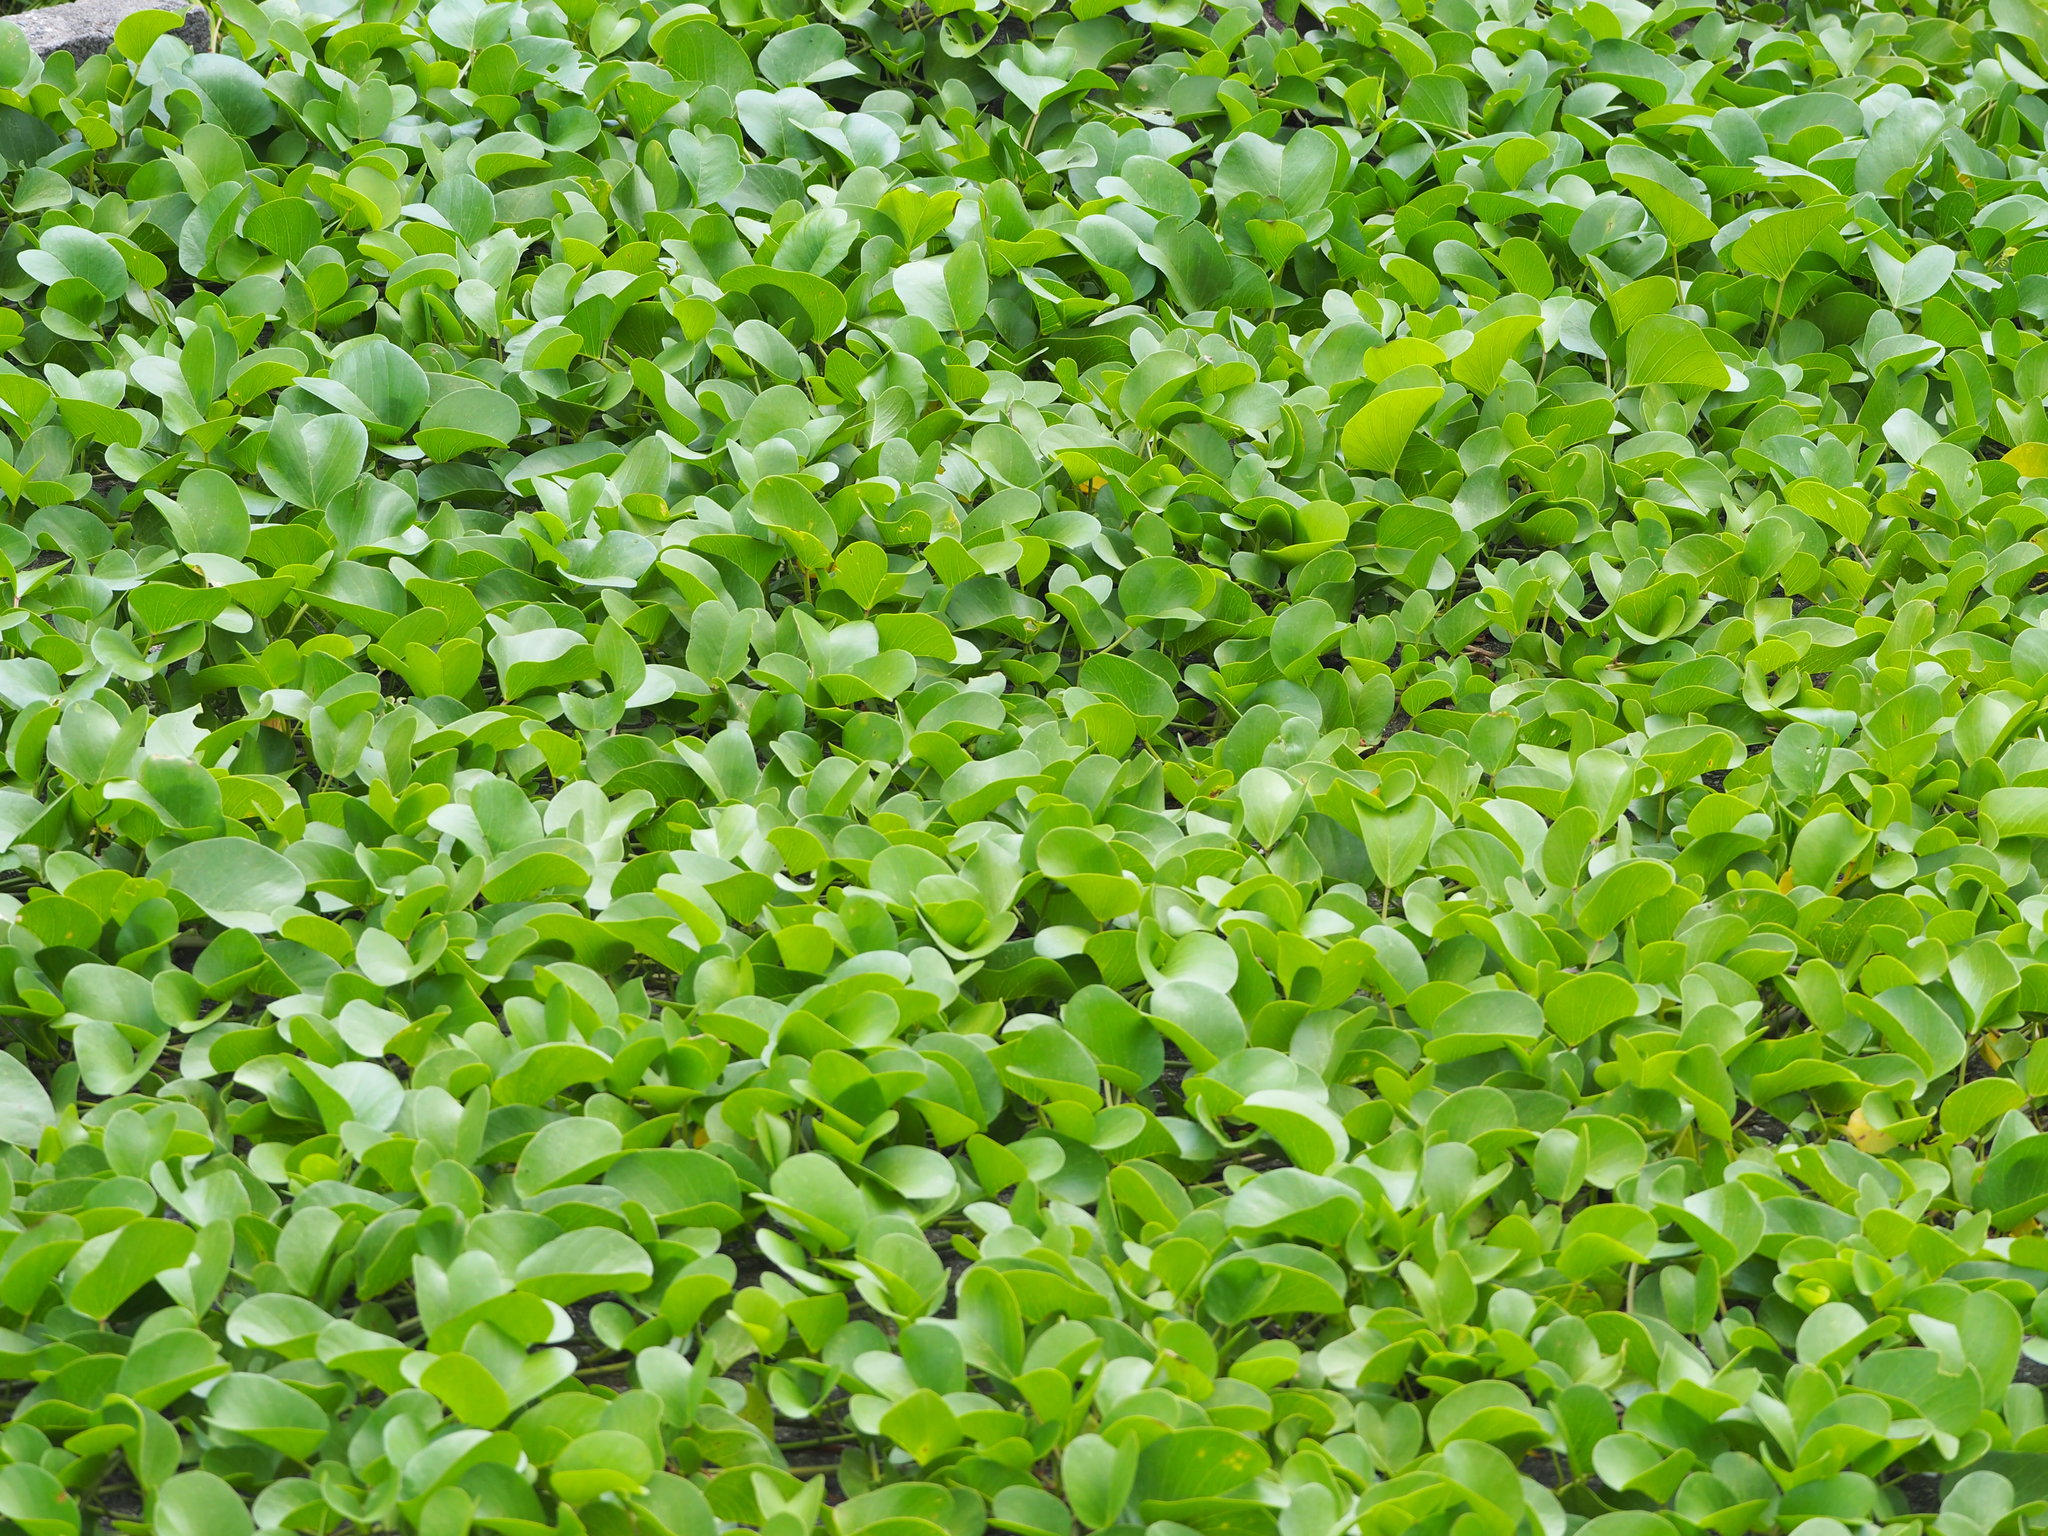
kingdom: Plantae
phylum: Tracheophyta
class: Magnoliopsida
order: Solanales
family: Convolvulaceae
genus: Ipomoea
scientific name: Ipomoea pes-caprae
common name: Beach morning glory
